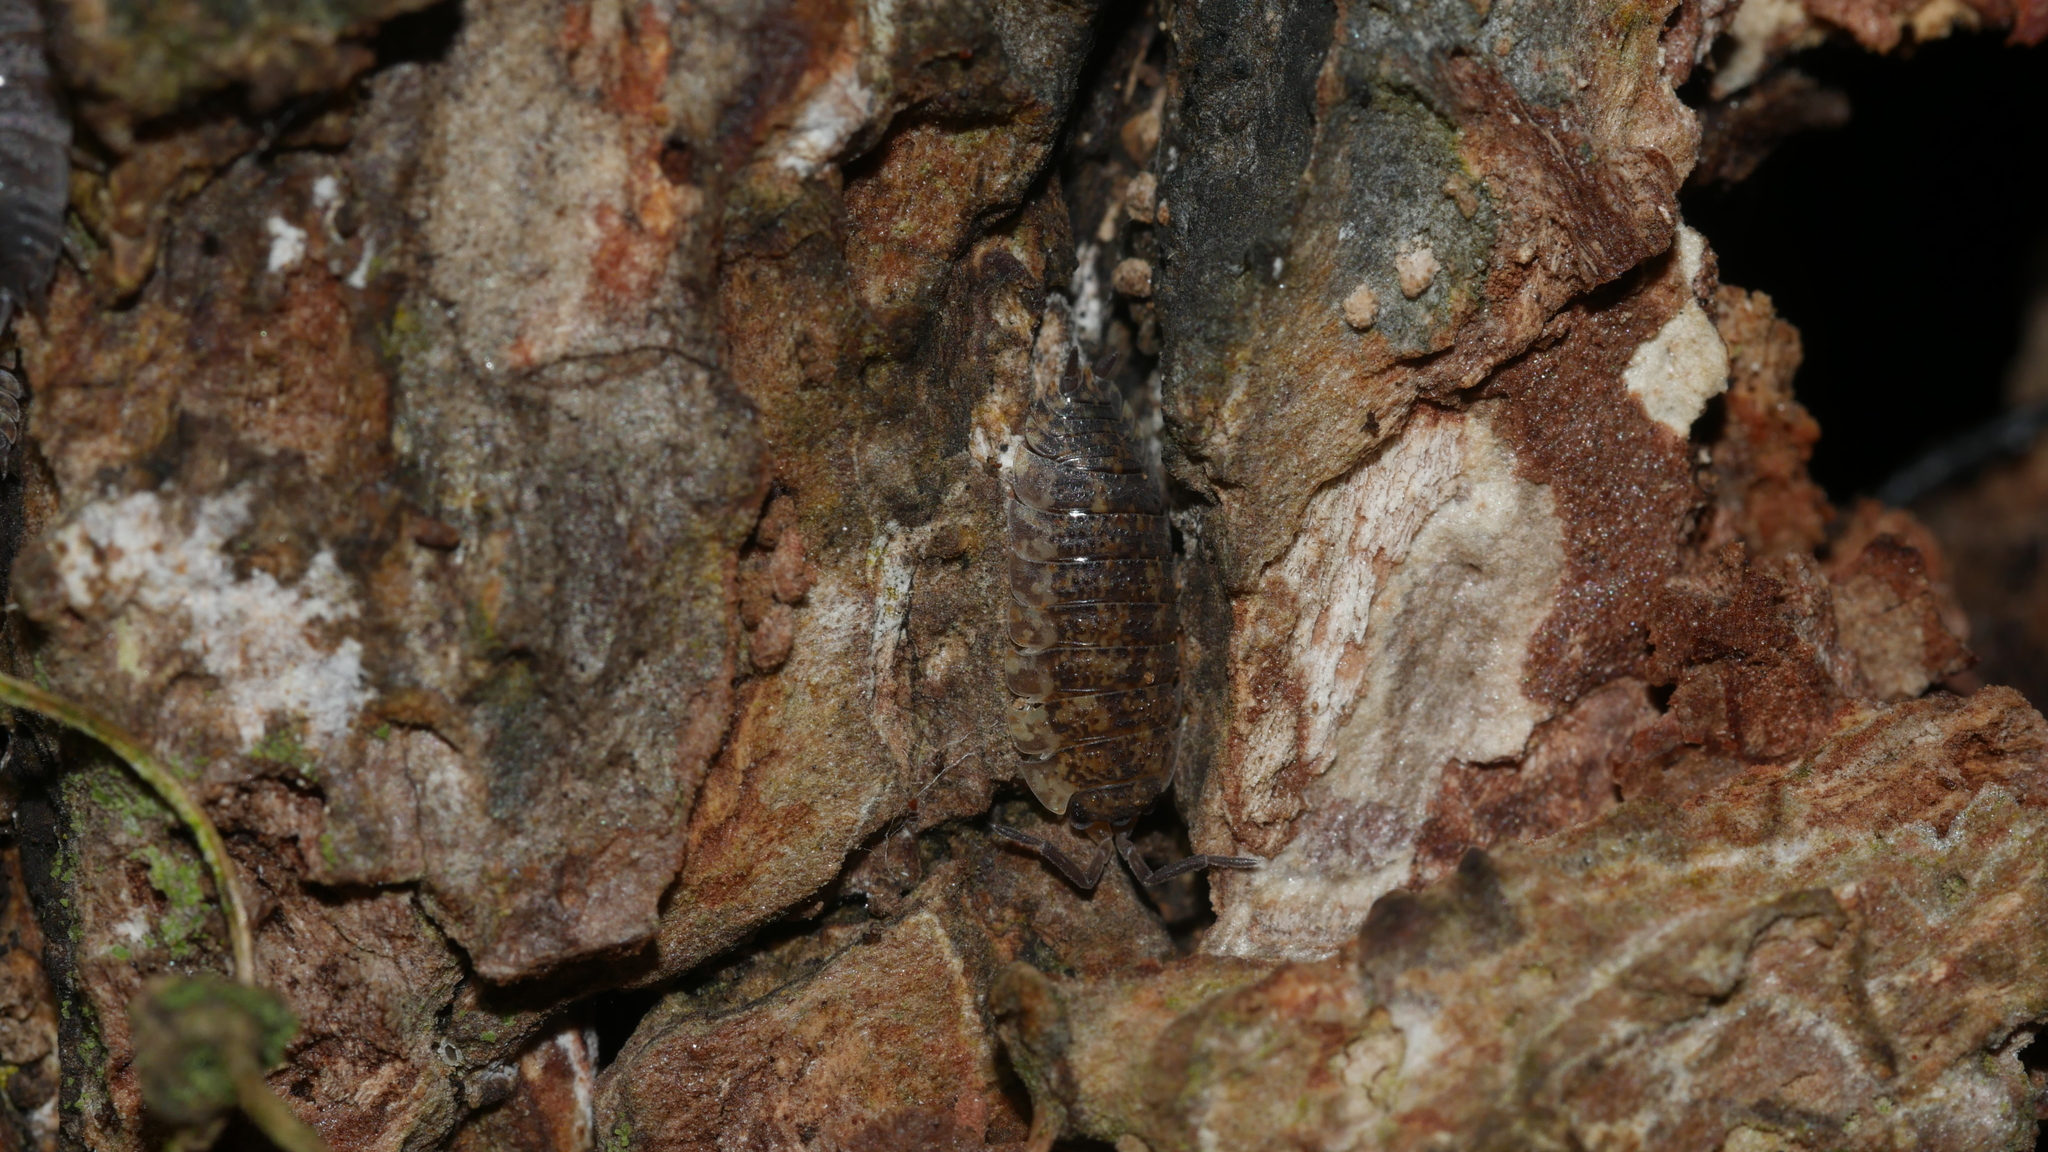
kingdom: Animalia
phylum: Arthropoda
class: Malacostraca
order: Isopoda
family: Porcellionidae
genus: Porcellio
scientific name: Porcellio scaber
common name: Common rough woodlouse
